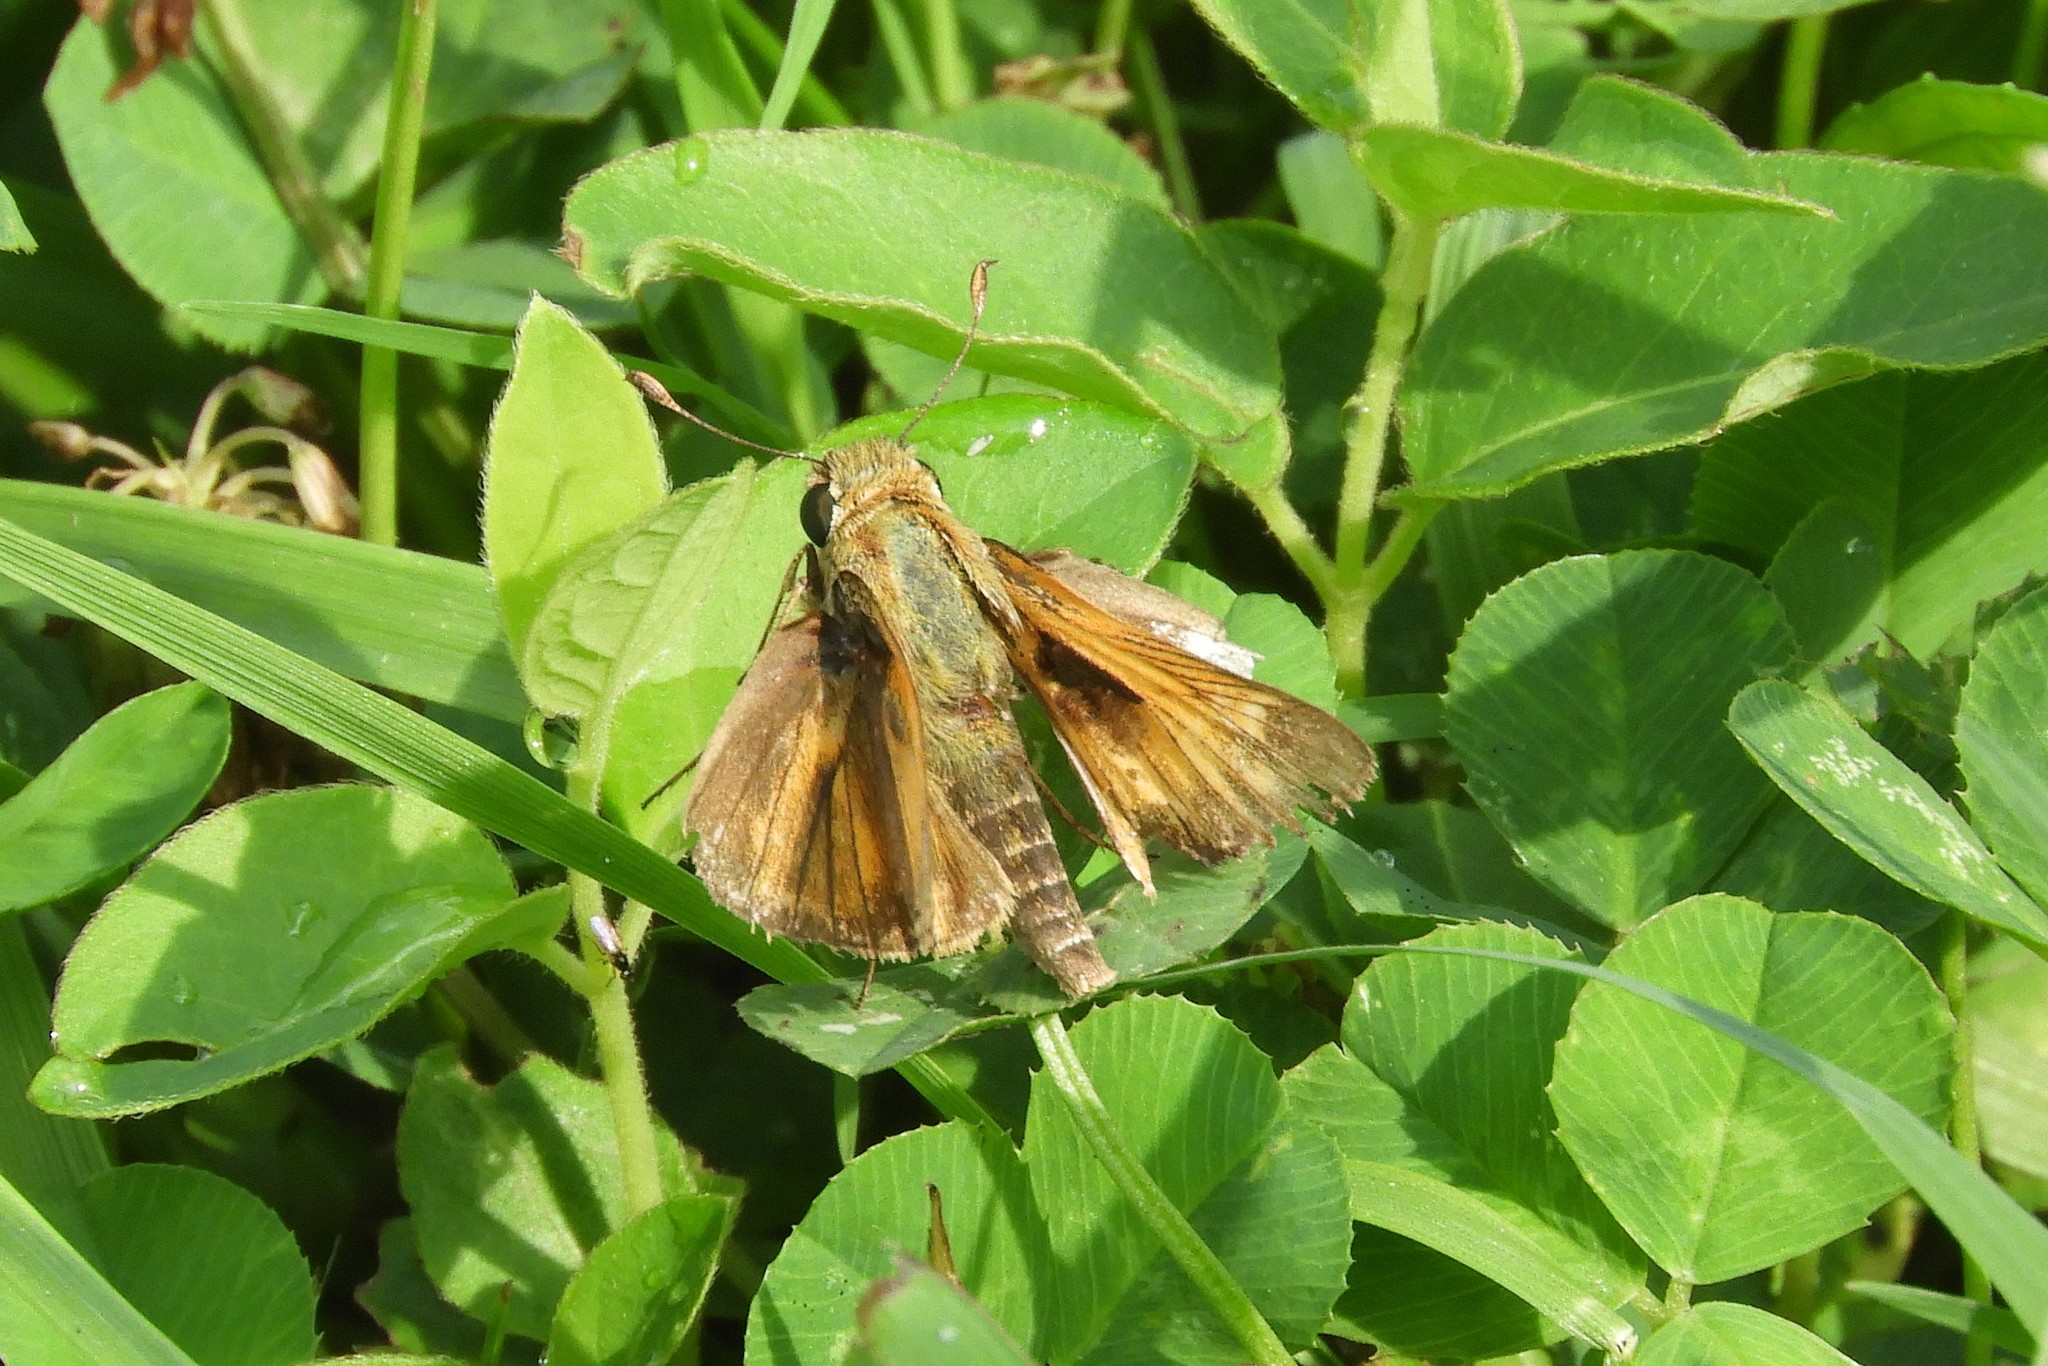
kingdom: Animalia
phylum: Arthropoda
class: Insecta
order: Lepidoptera
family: Hesperiidae
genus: Atalopedes
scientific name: Atalopedes
